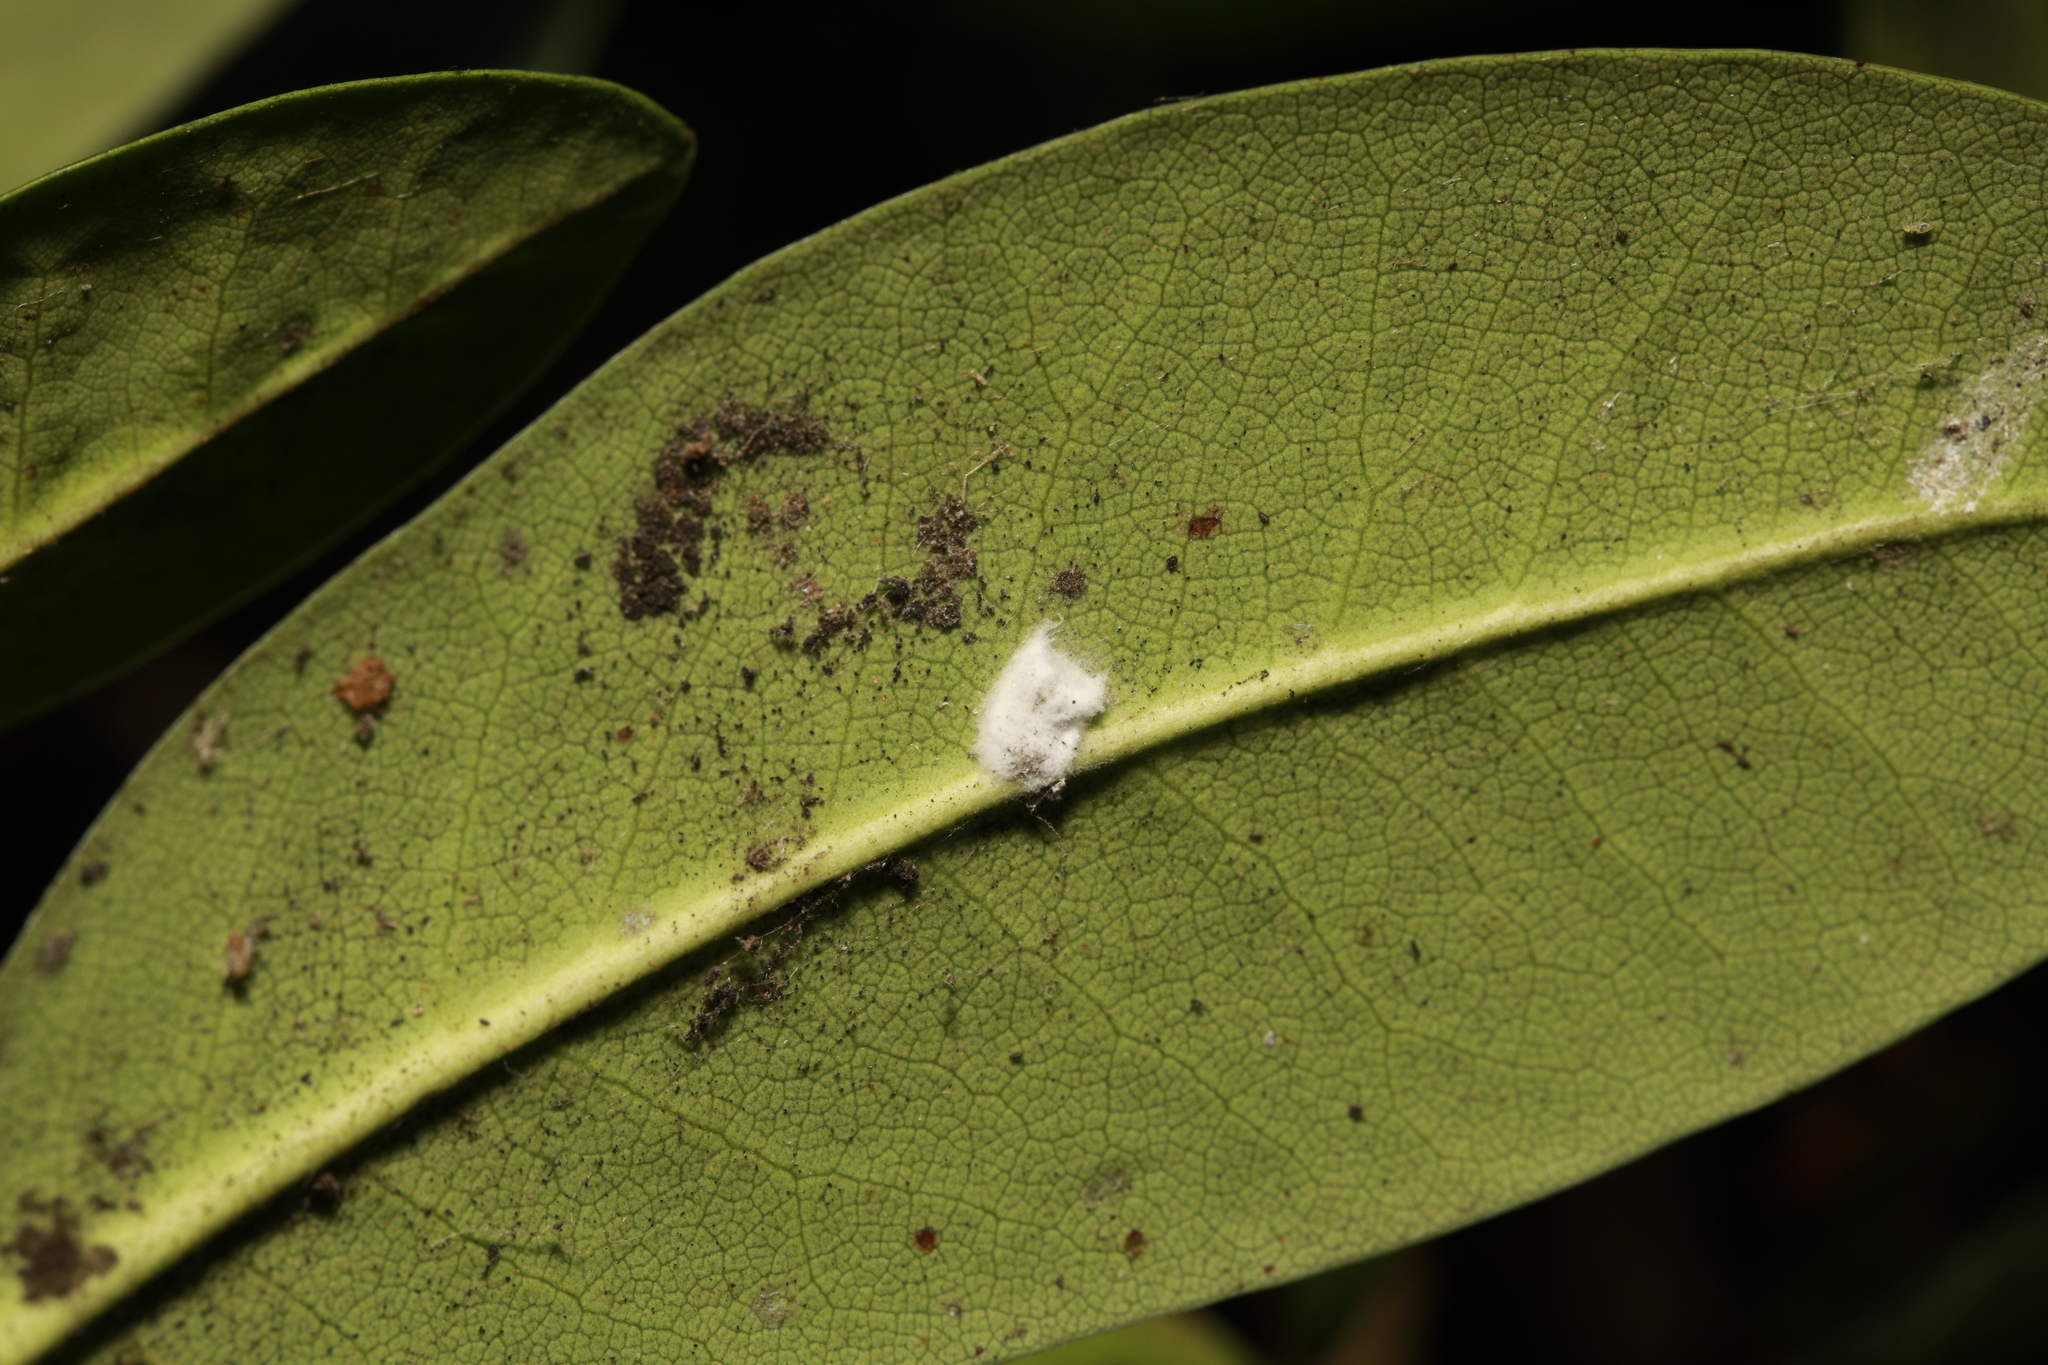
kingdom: Animalia
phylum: Arthropoda
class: Insecta
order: Hemiptera
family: Coccidae
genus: Pulvinaria
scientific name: Pulvinaria floccifera
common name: Cottony camellia scale
